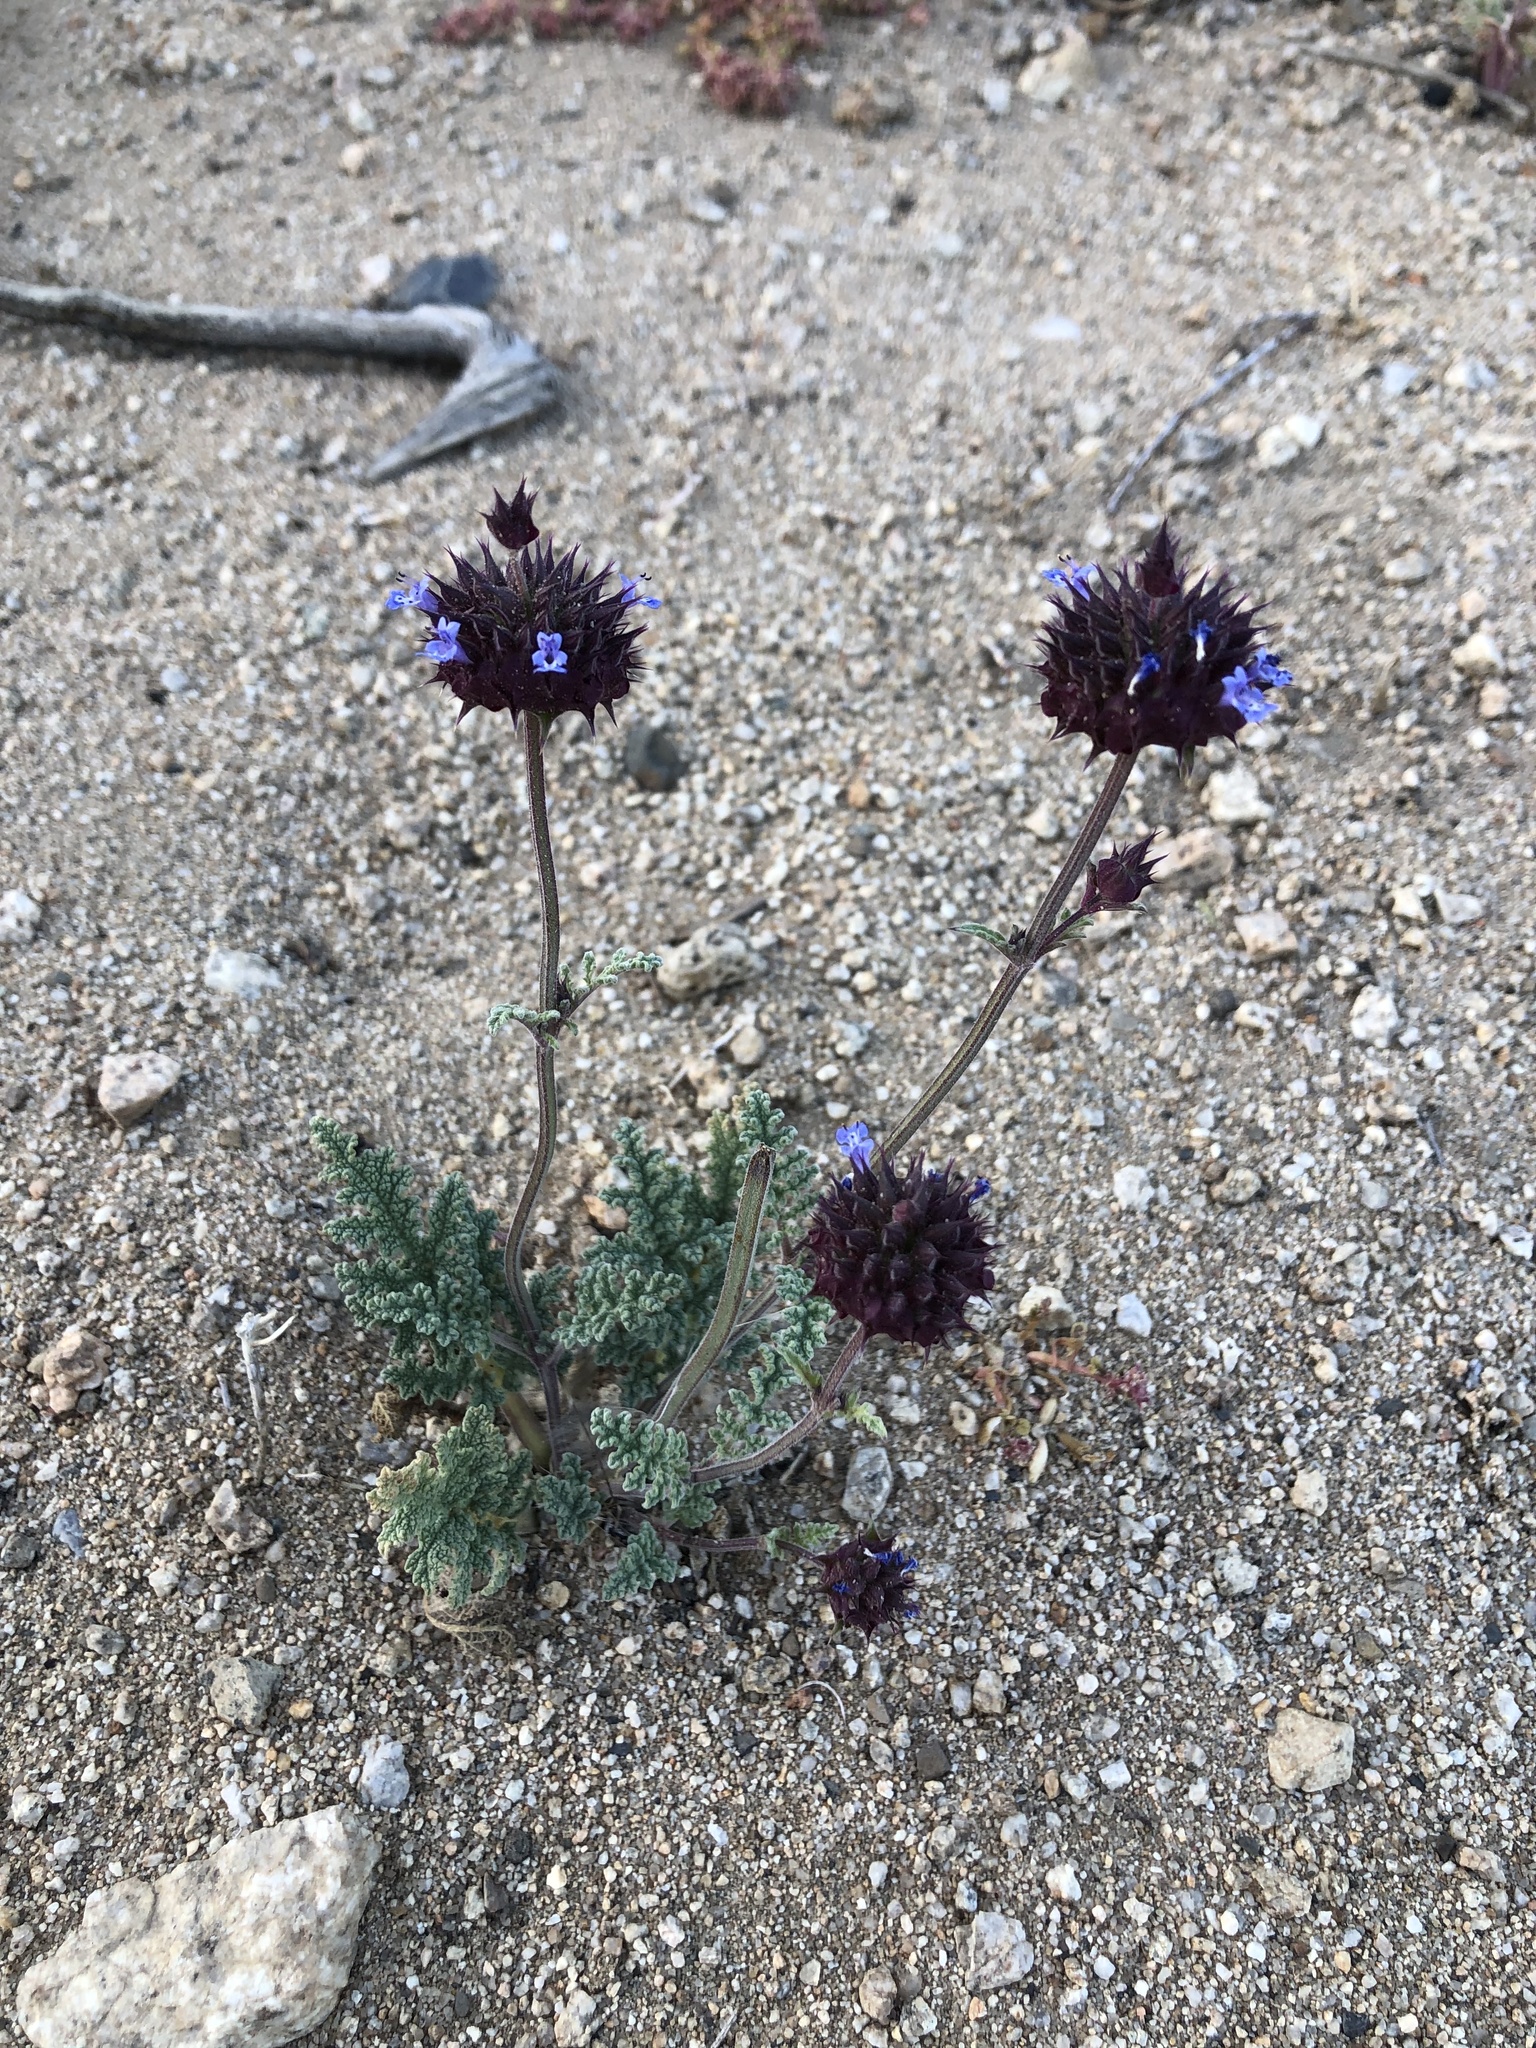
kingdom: Plantae
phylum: Tracheophyta
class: Magnoliopsida
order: Lamiales
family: Lamiaceae
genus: Salvia
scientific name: Salvia columbariae
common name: Chia
